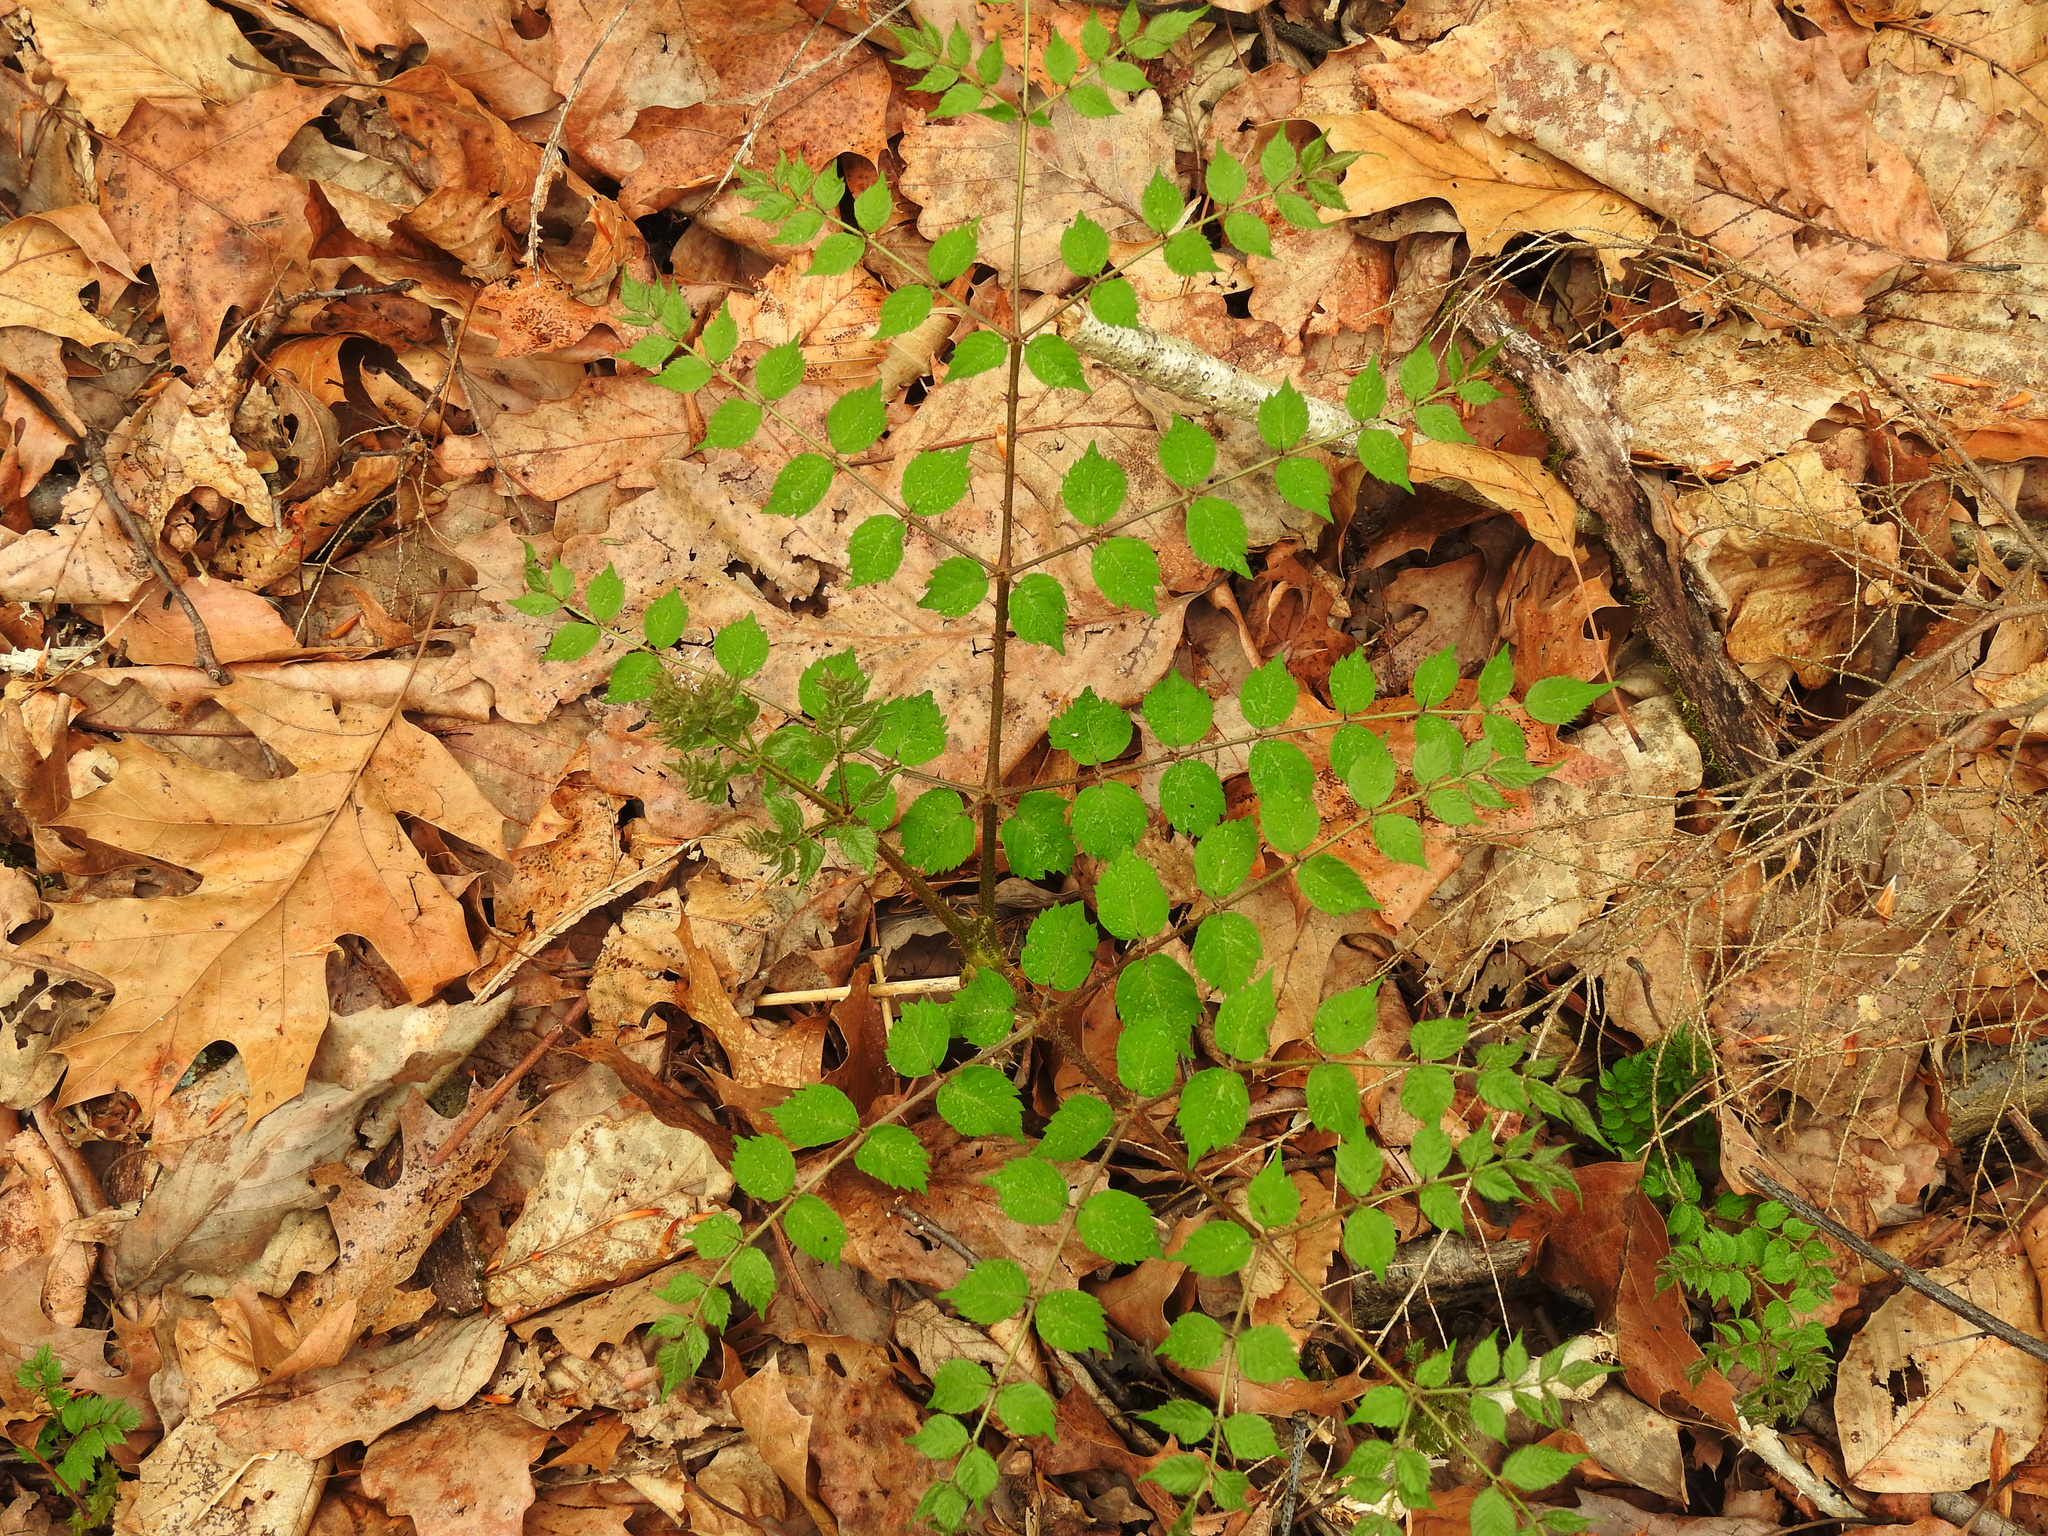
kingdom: Plantae
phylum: Tracheophyta
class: Magnoliopsida
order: Apiales
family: Araliaceae
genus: Aralia
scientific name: Aralia elata
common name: Japanese angelica-tree
